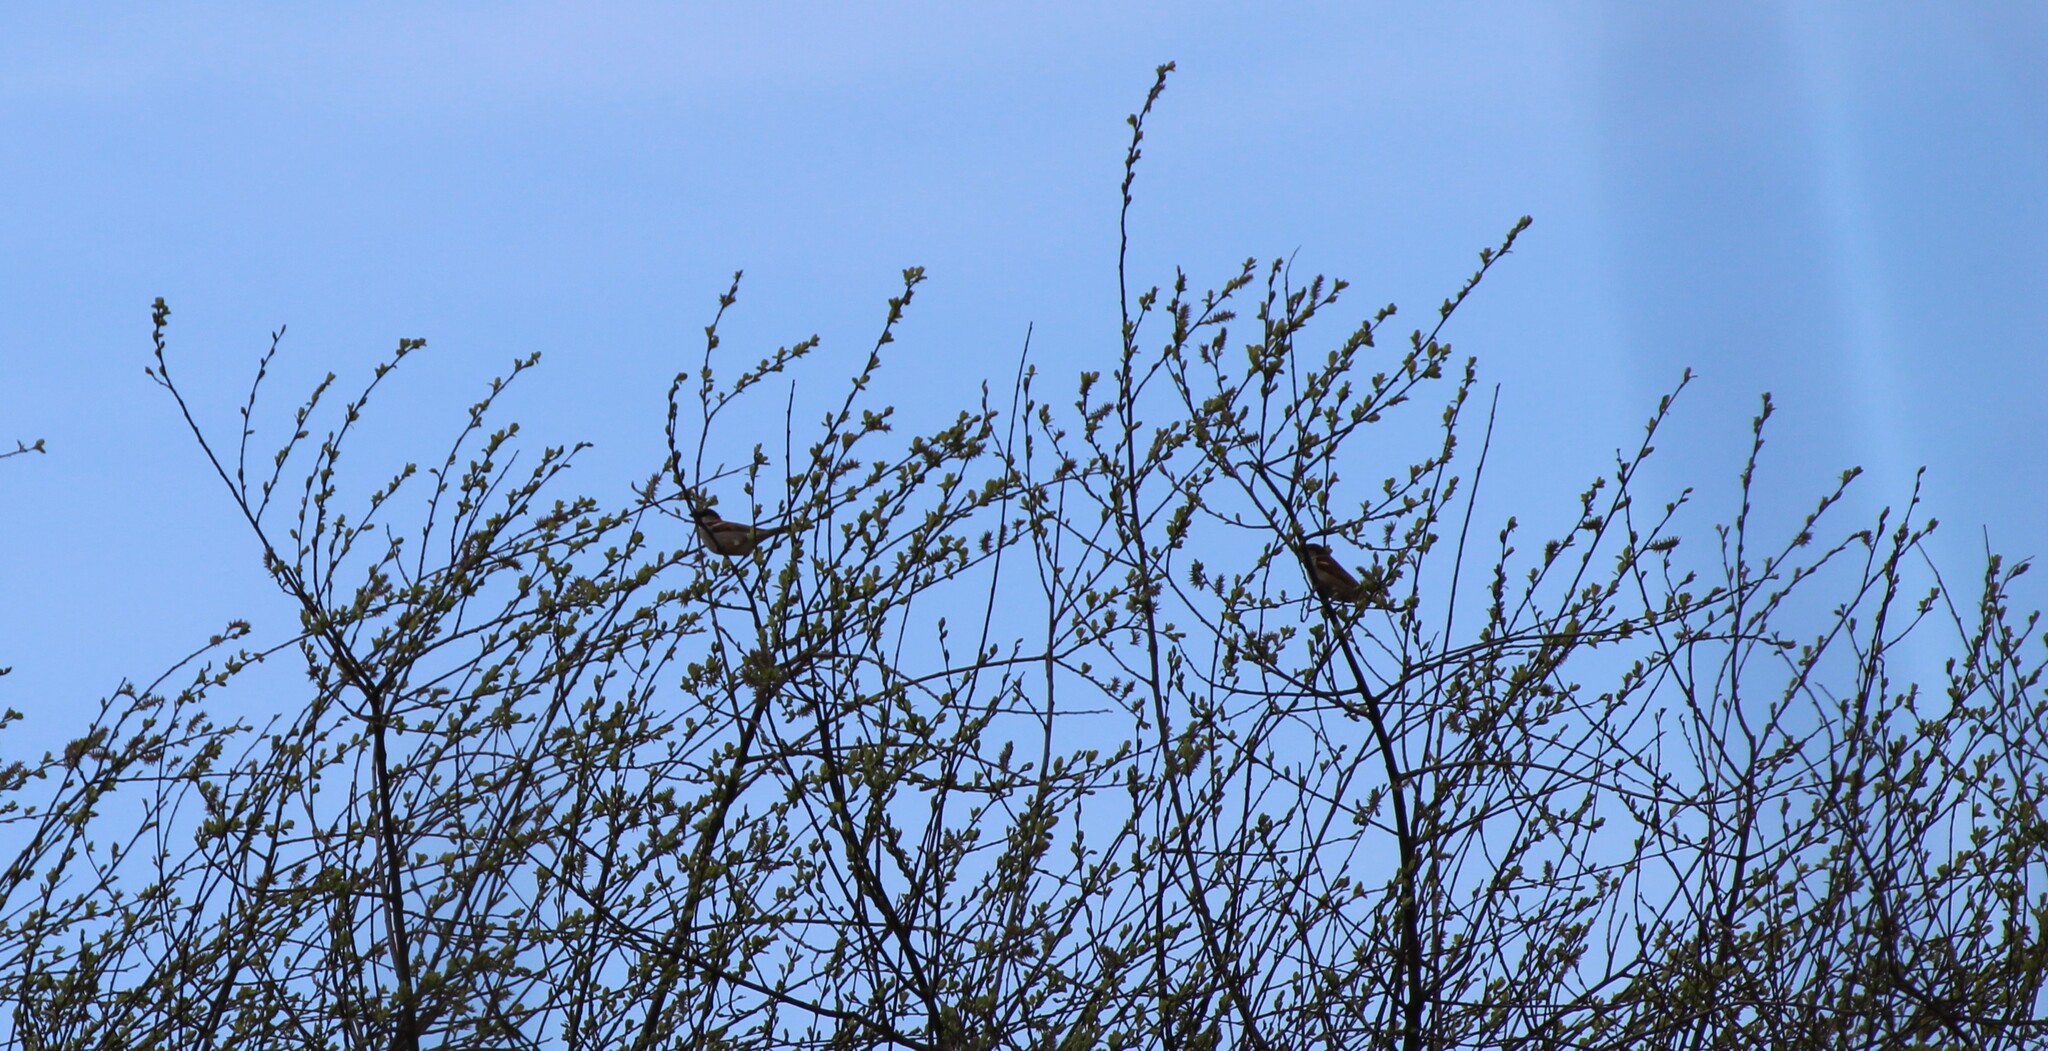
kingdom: Animalia
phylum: Chordata
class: Aves
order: Passeriformes
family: Passeridae
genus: Passer
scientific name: Passer domesticus
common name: House sparrow
